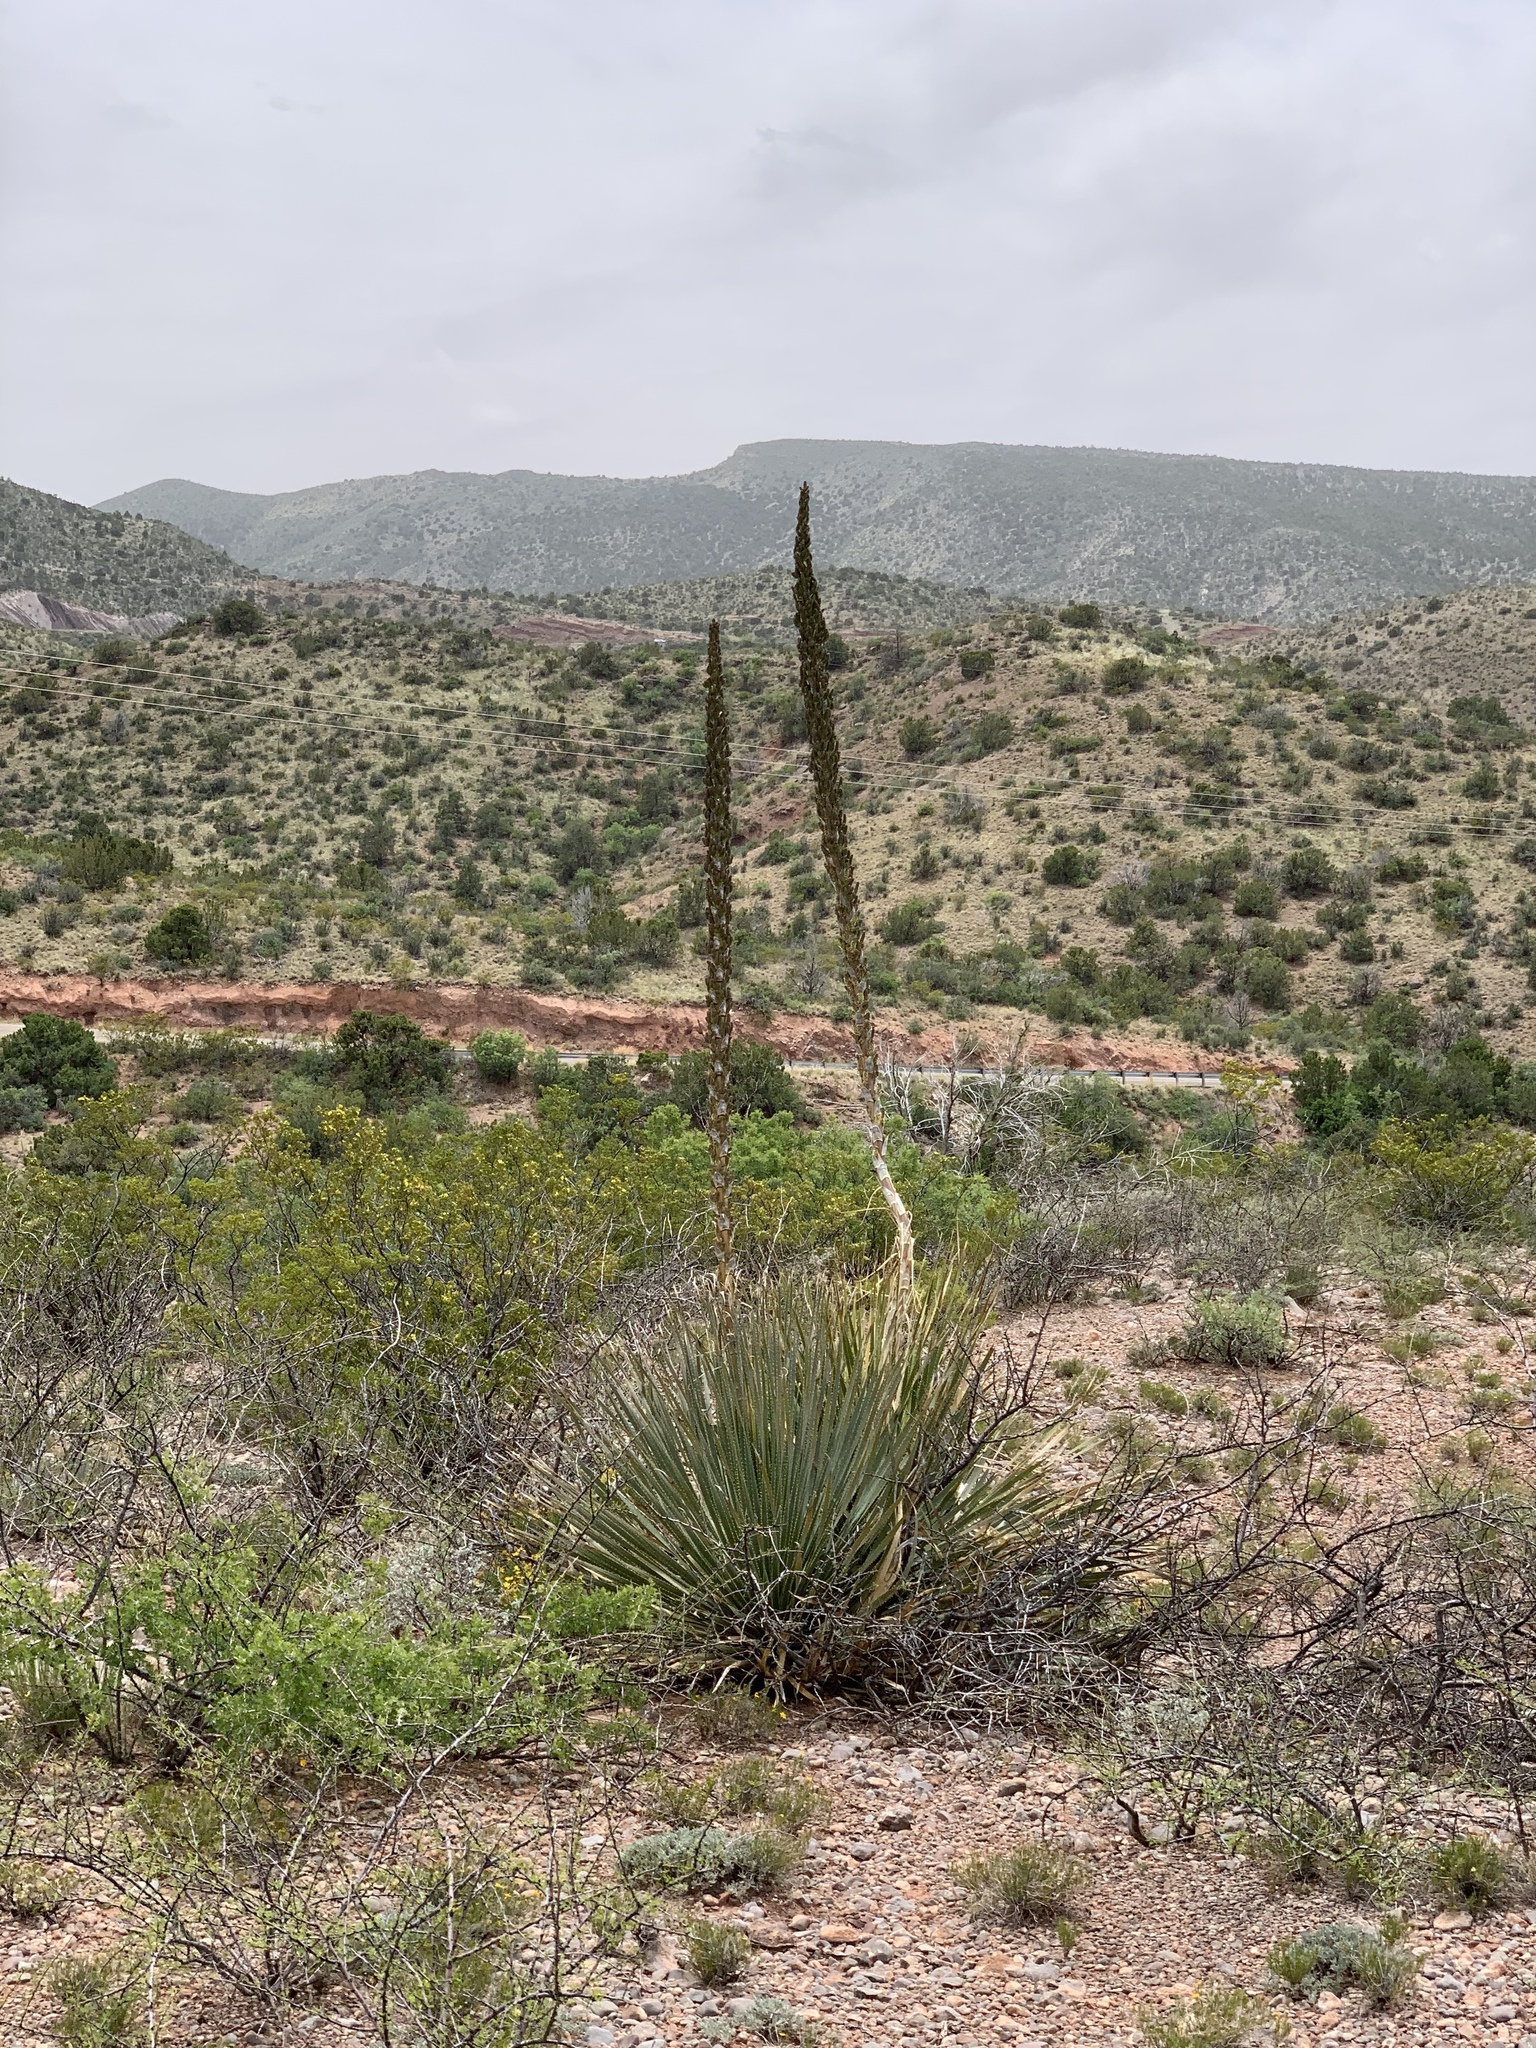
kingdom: Plantae
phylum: Tracheophyta
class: Liliopsida
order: Asparagales
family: Asparagaceae
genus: Dasylirion
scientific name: Dasylirion wheeleri
